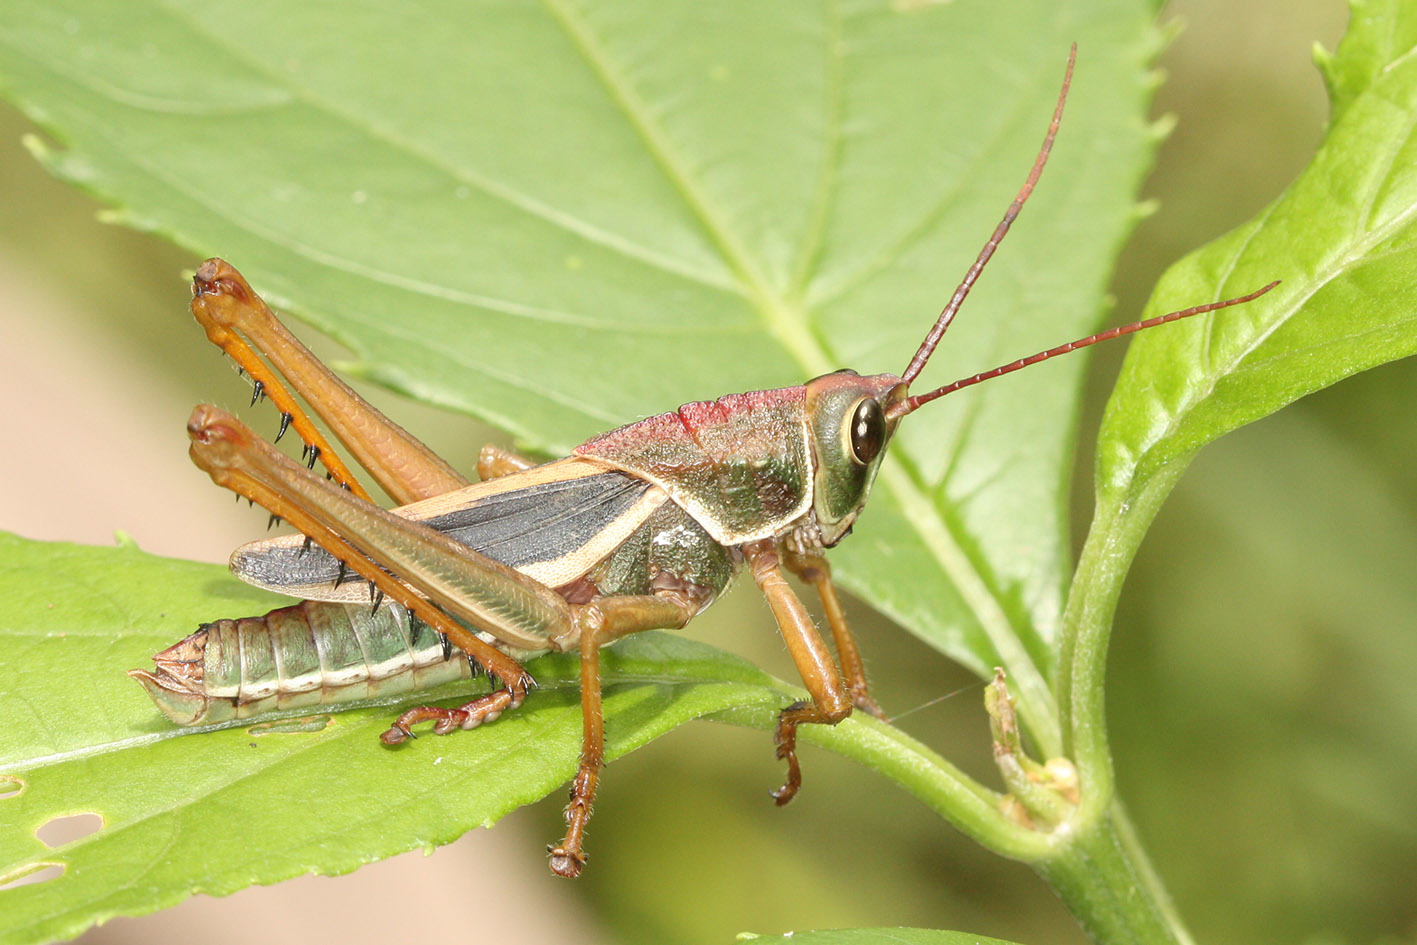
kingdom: Animalia
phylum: Arthropoda
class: Insecta
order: Orthoptera
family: Romaleidae
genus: Staleochlora
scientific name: Staleochlora arcuata
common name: Paraná purple-backed grasshopper
